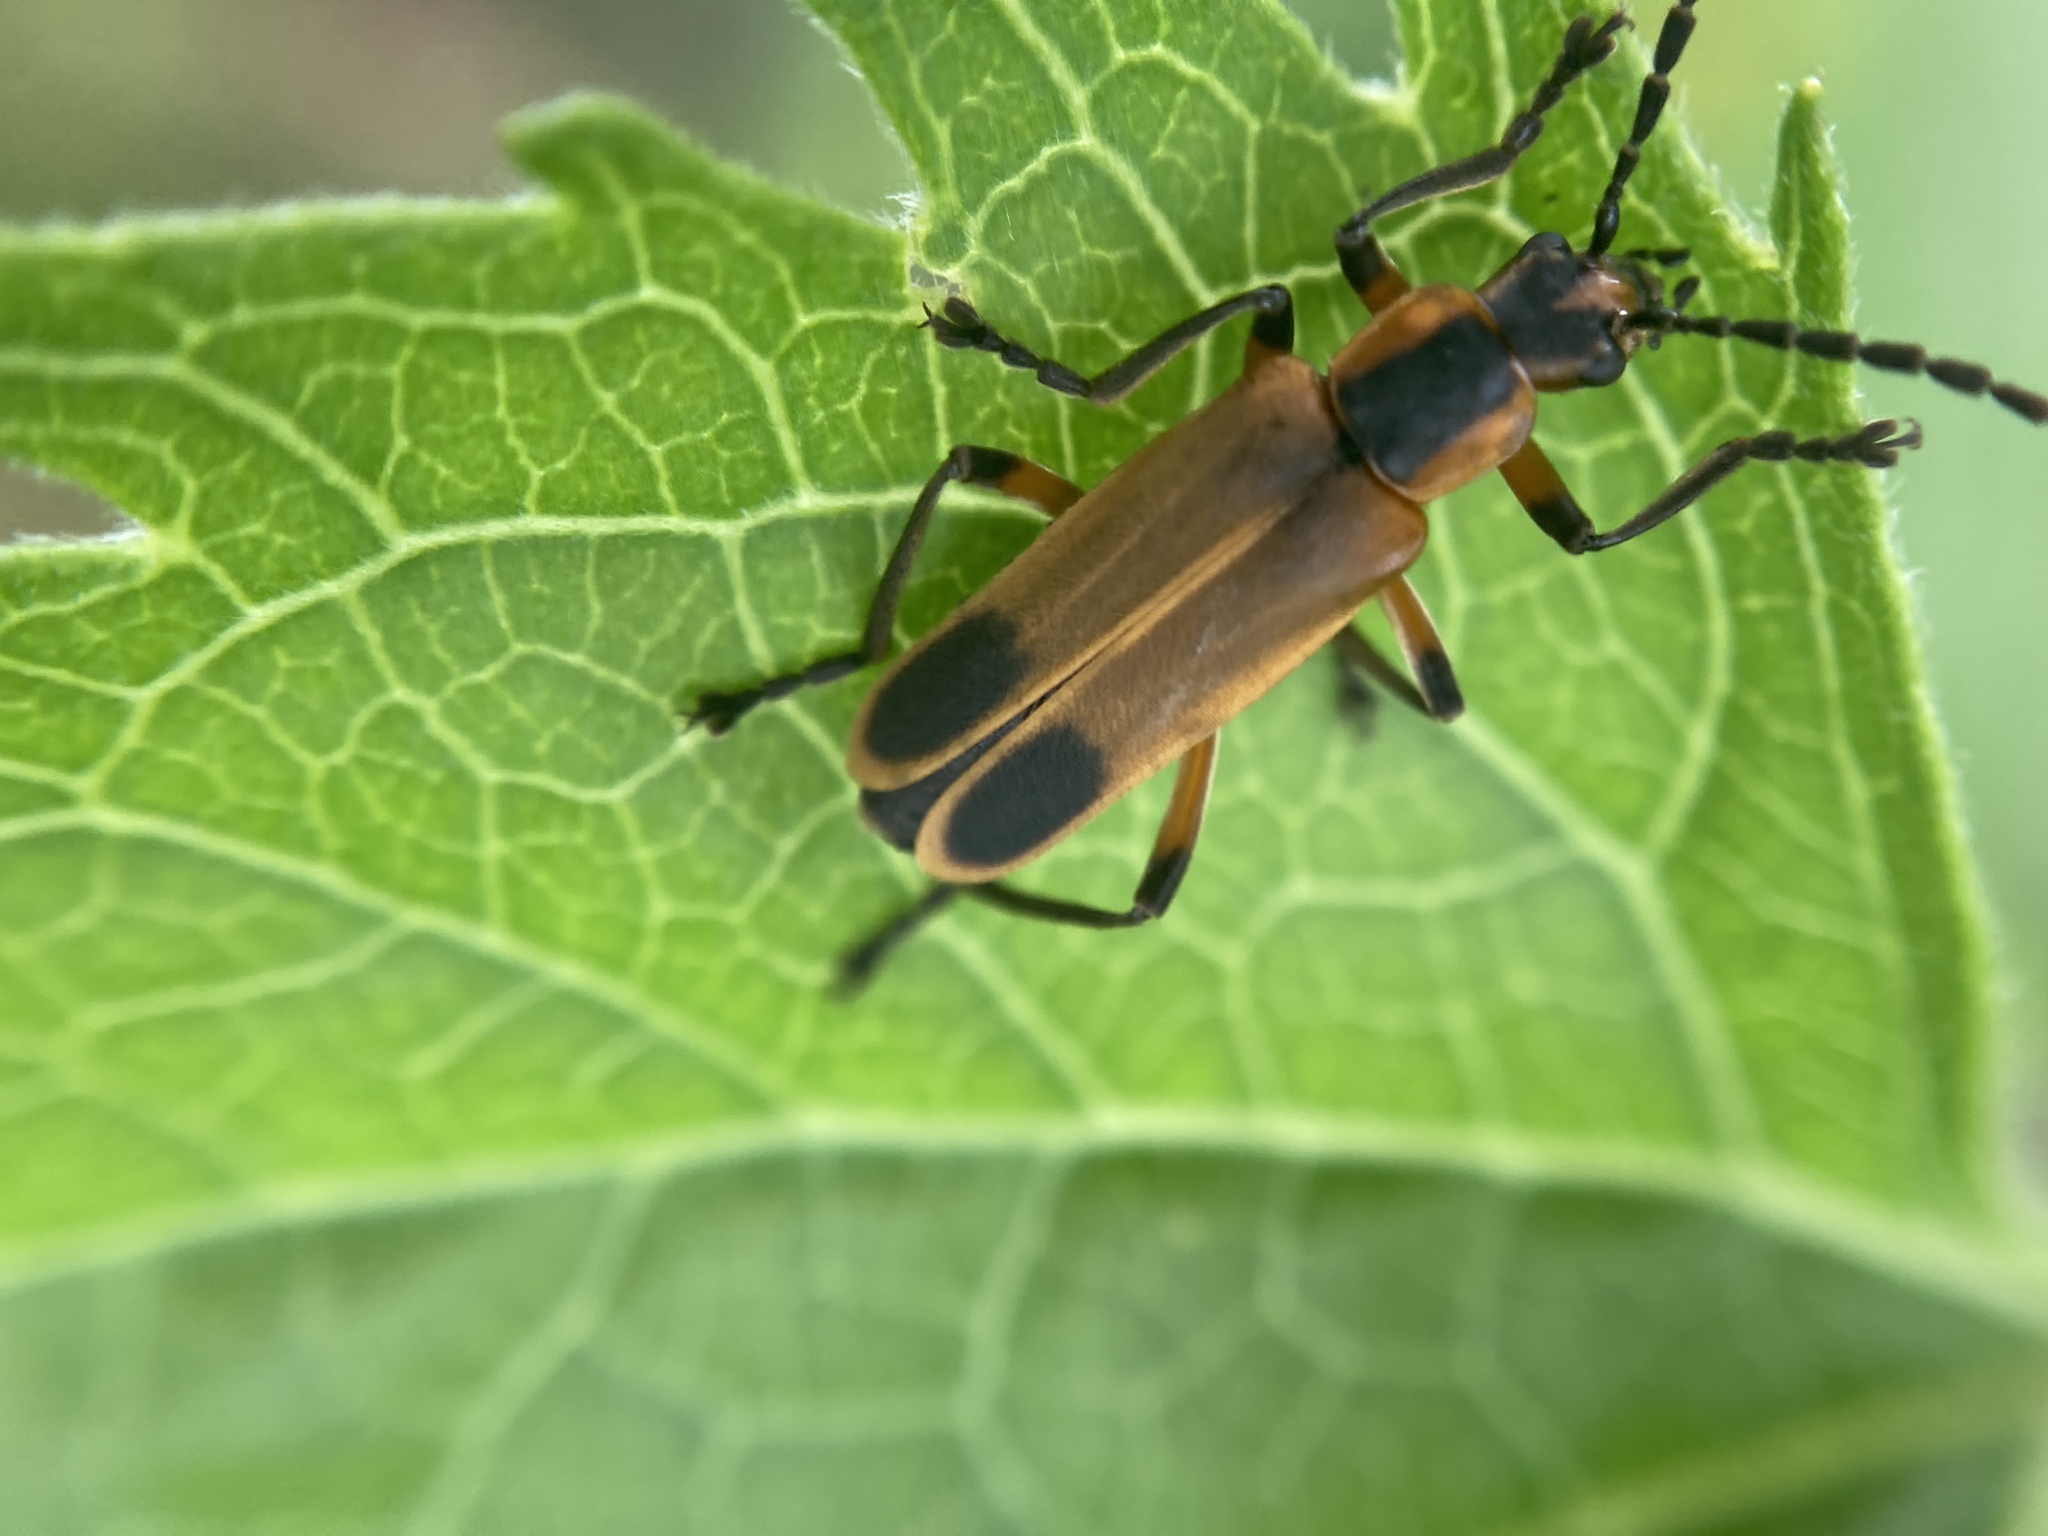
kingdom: Animalia
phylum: Arthropoda
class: Insecta
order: Coleoptera
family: Cantharidae
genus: Chauliognathus
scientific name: Chauliognathus marginatus
